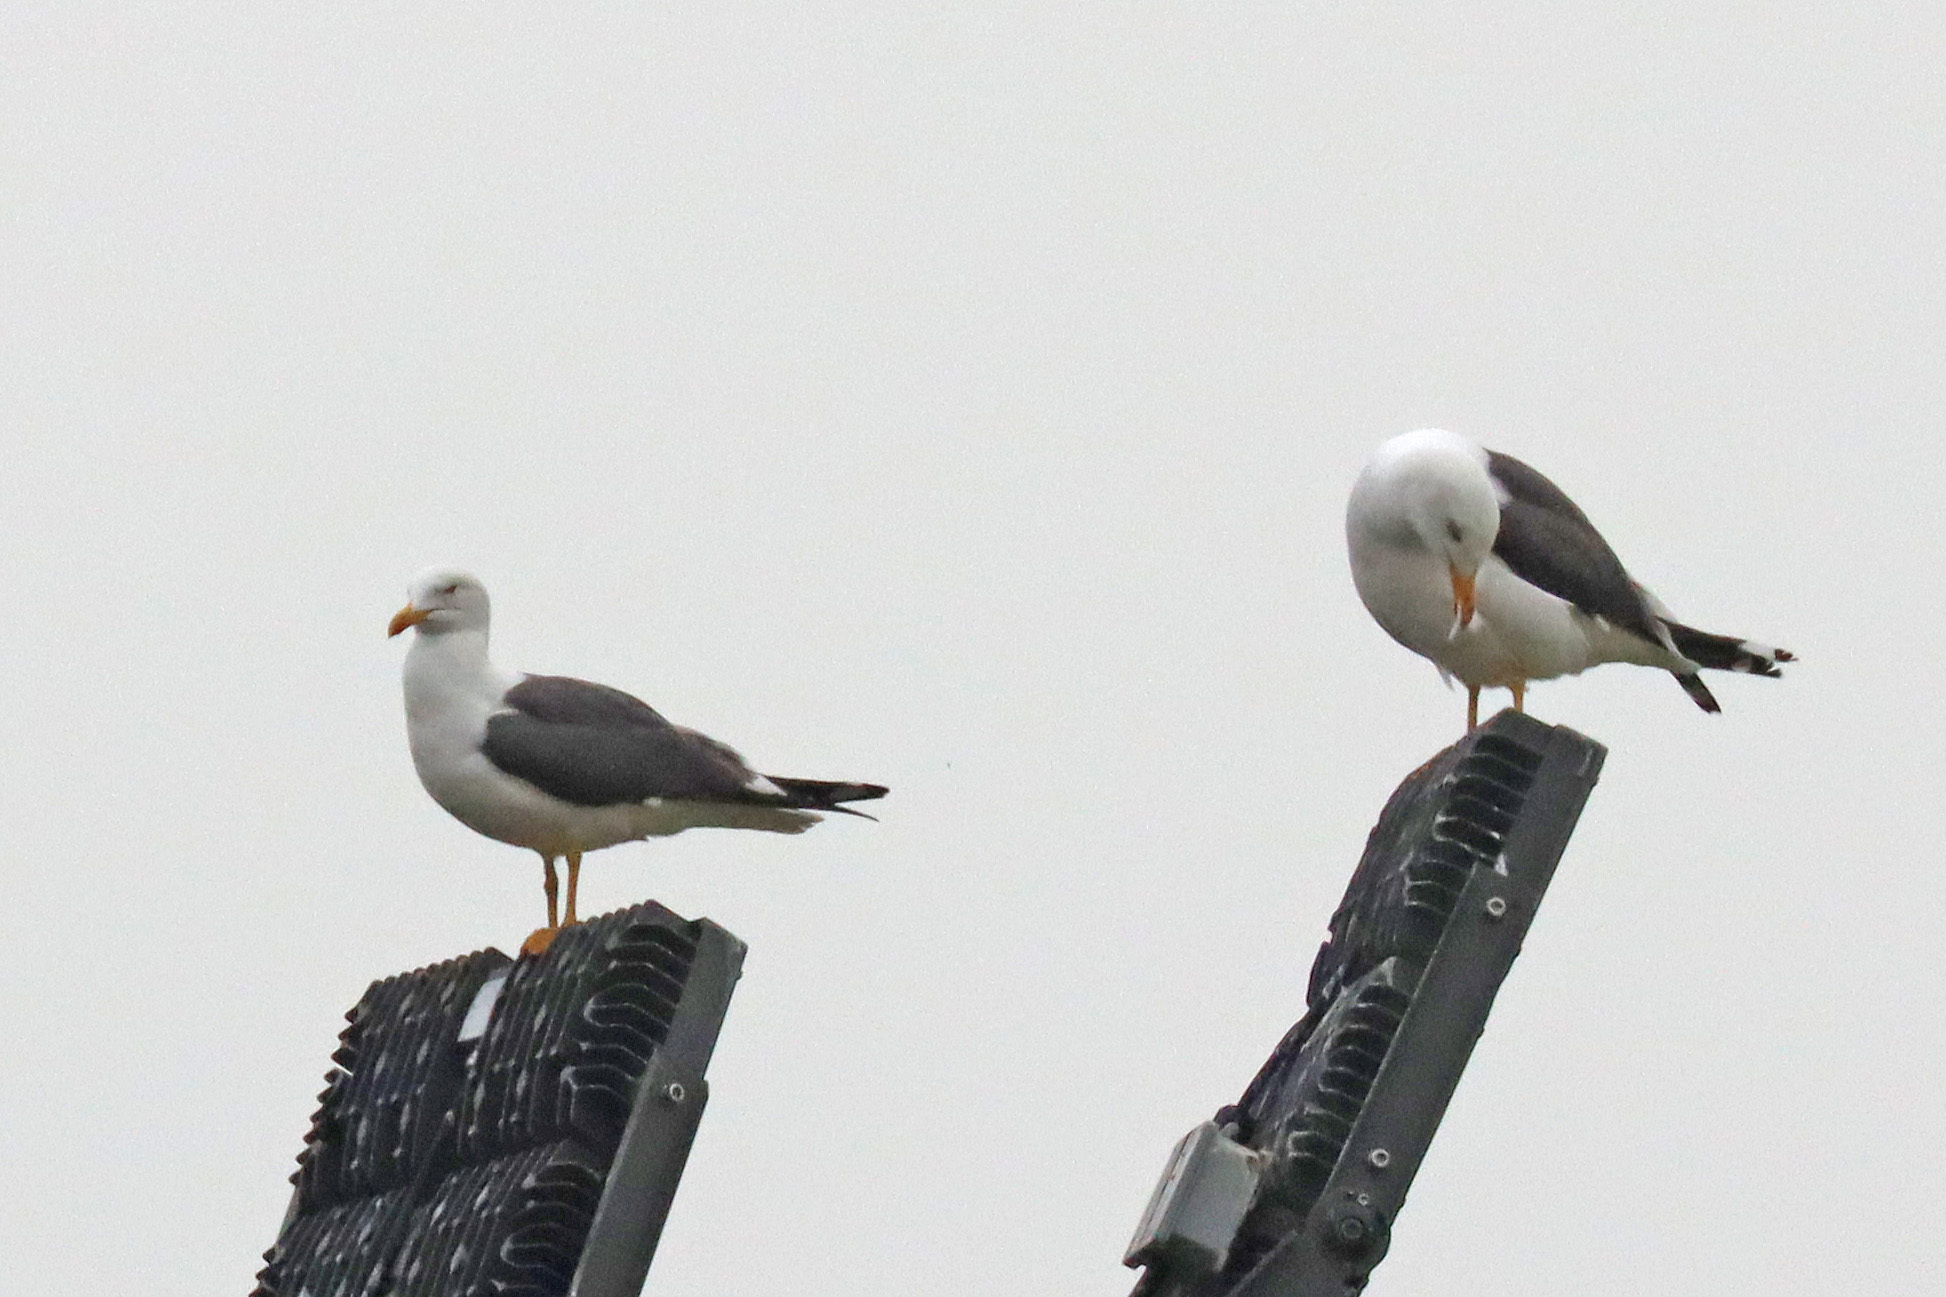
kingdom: Animalia
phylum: Chordata
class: Aves
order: Charadriiformes
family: Laridae
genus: Larus
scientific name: Larus fuscus
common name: Lesser black-backed gull
